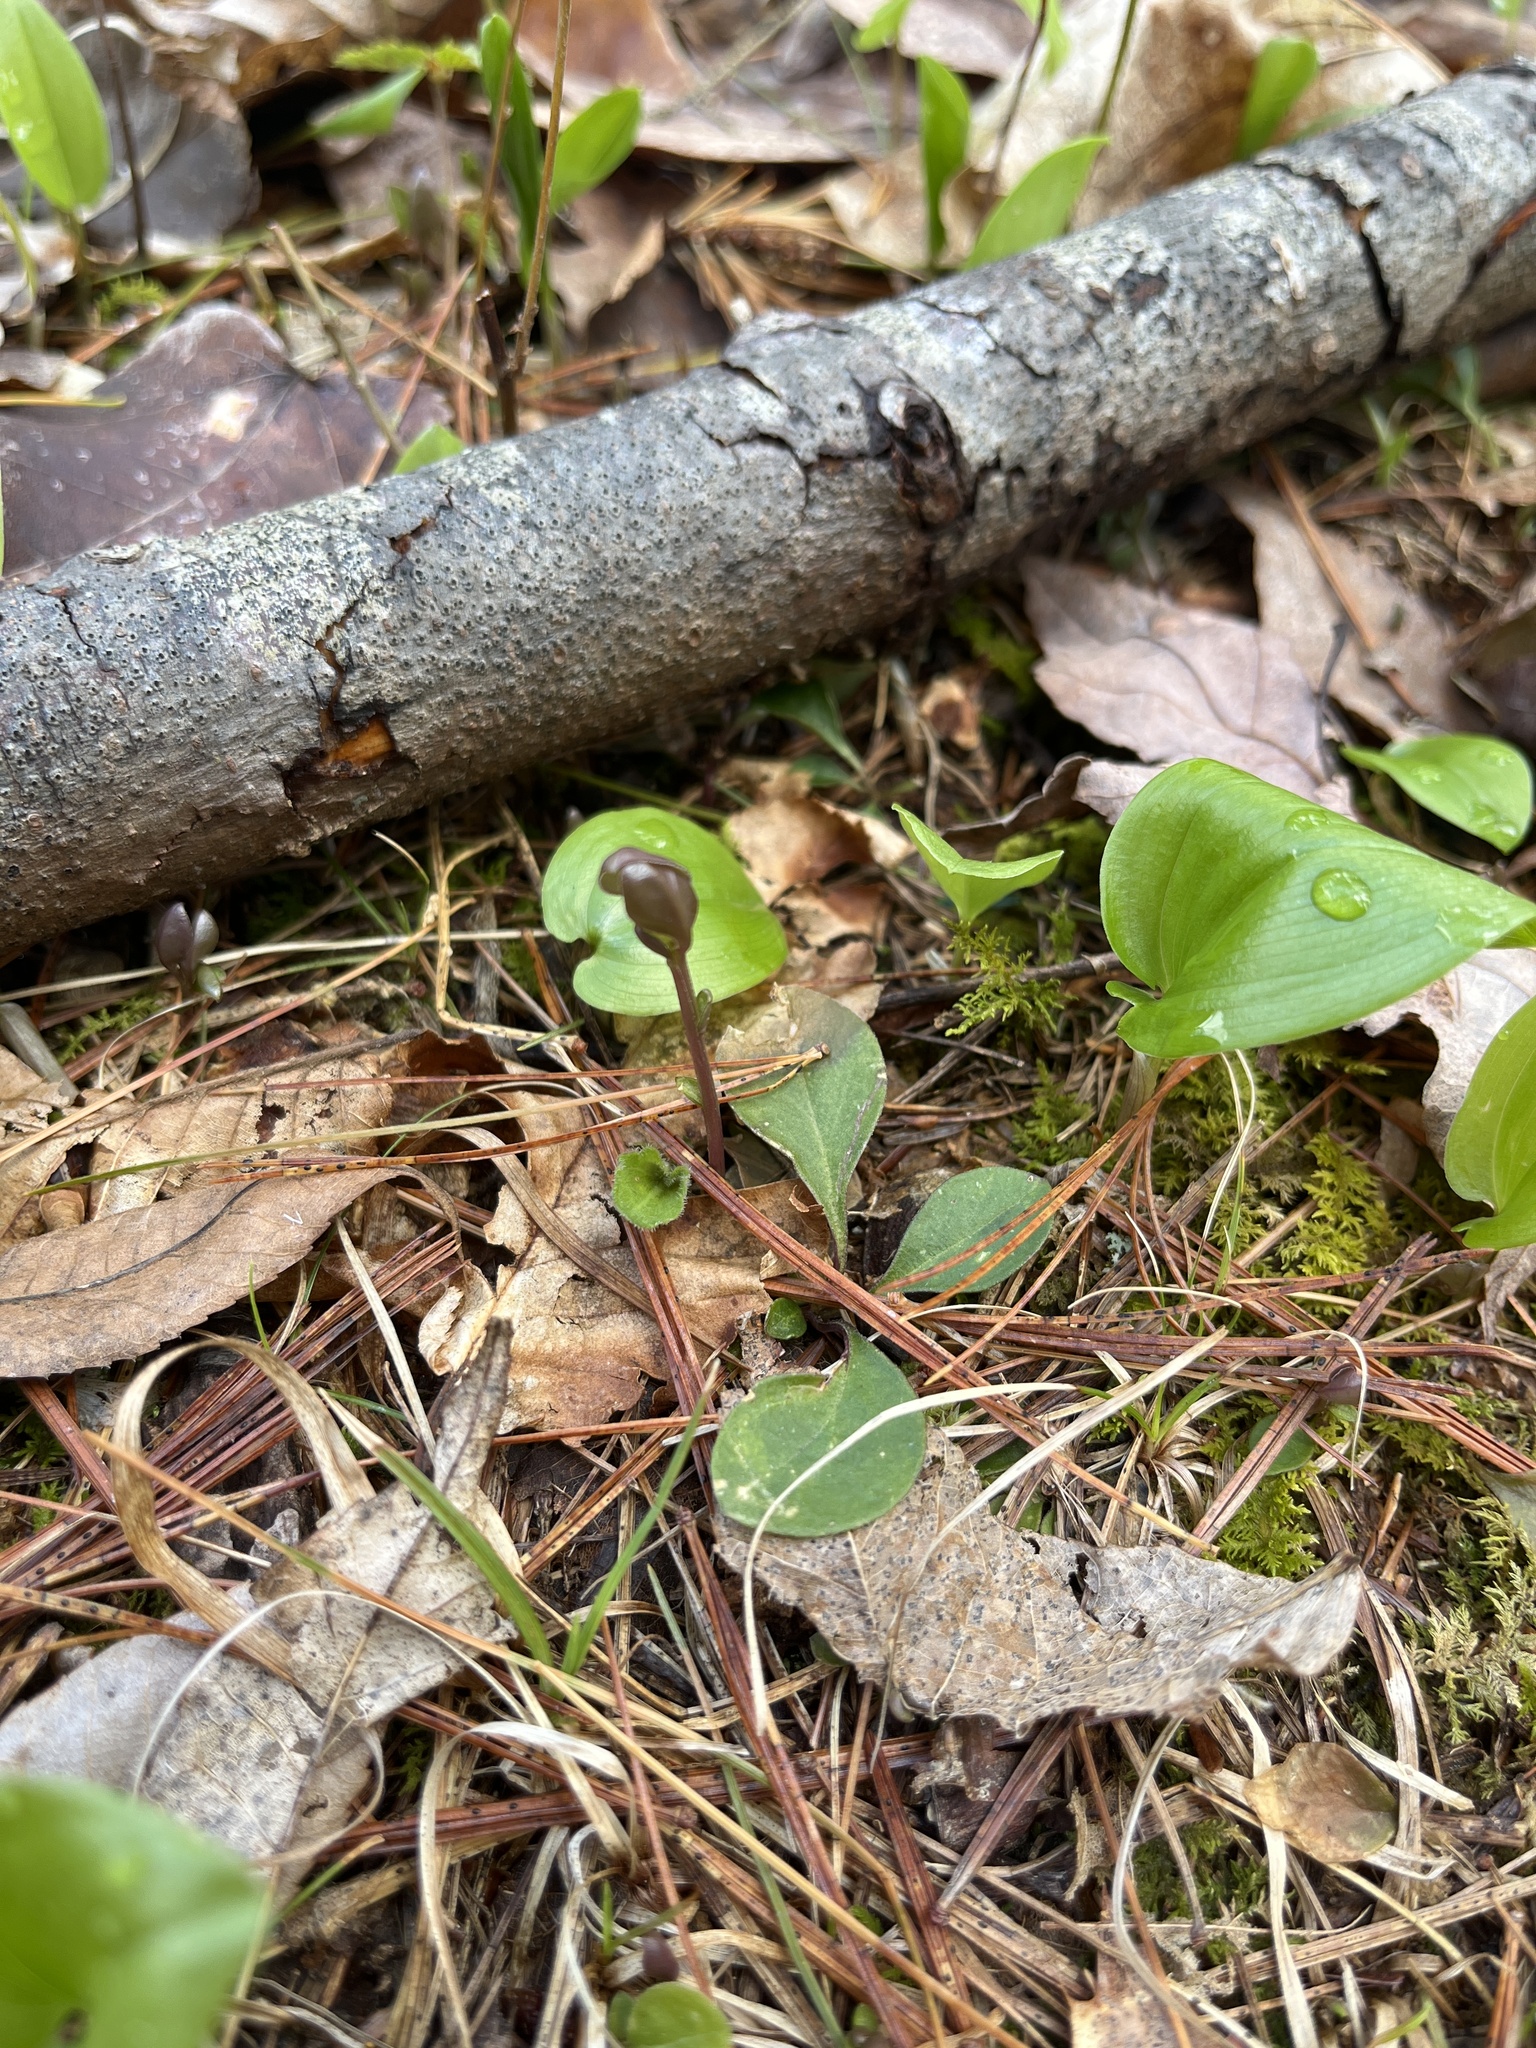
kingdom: Plantae
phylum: Tracheophyta
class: Magnoliopsida
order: Fabales
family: Polygalaceae
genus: Polygaloides
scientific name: Polygaloides paucifolia
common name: Bird-on-the-wing
